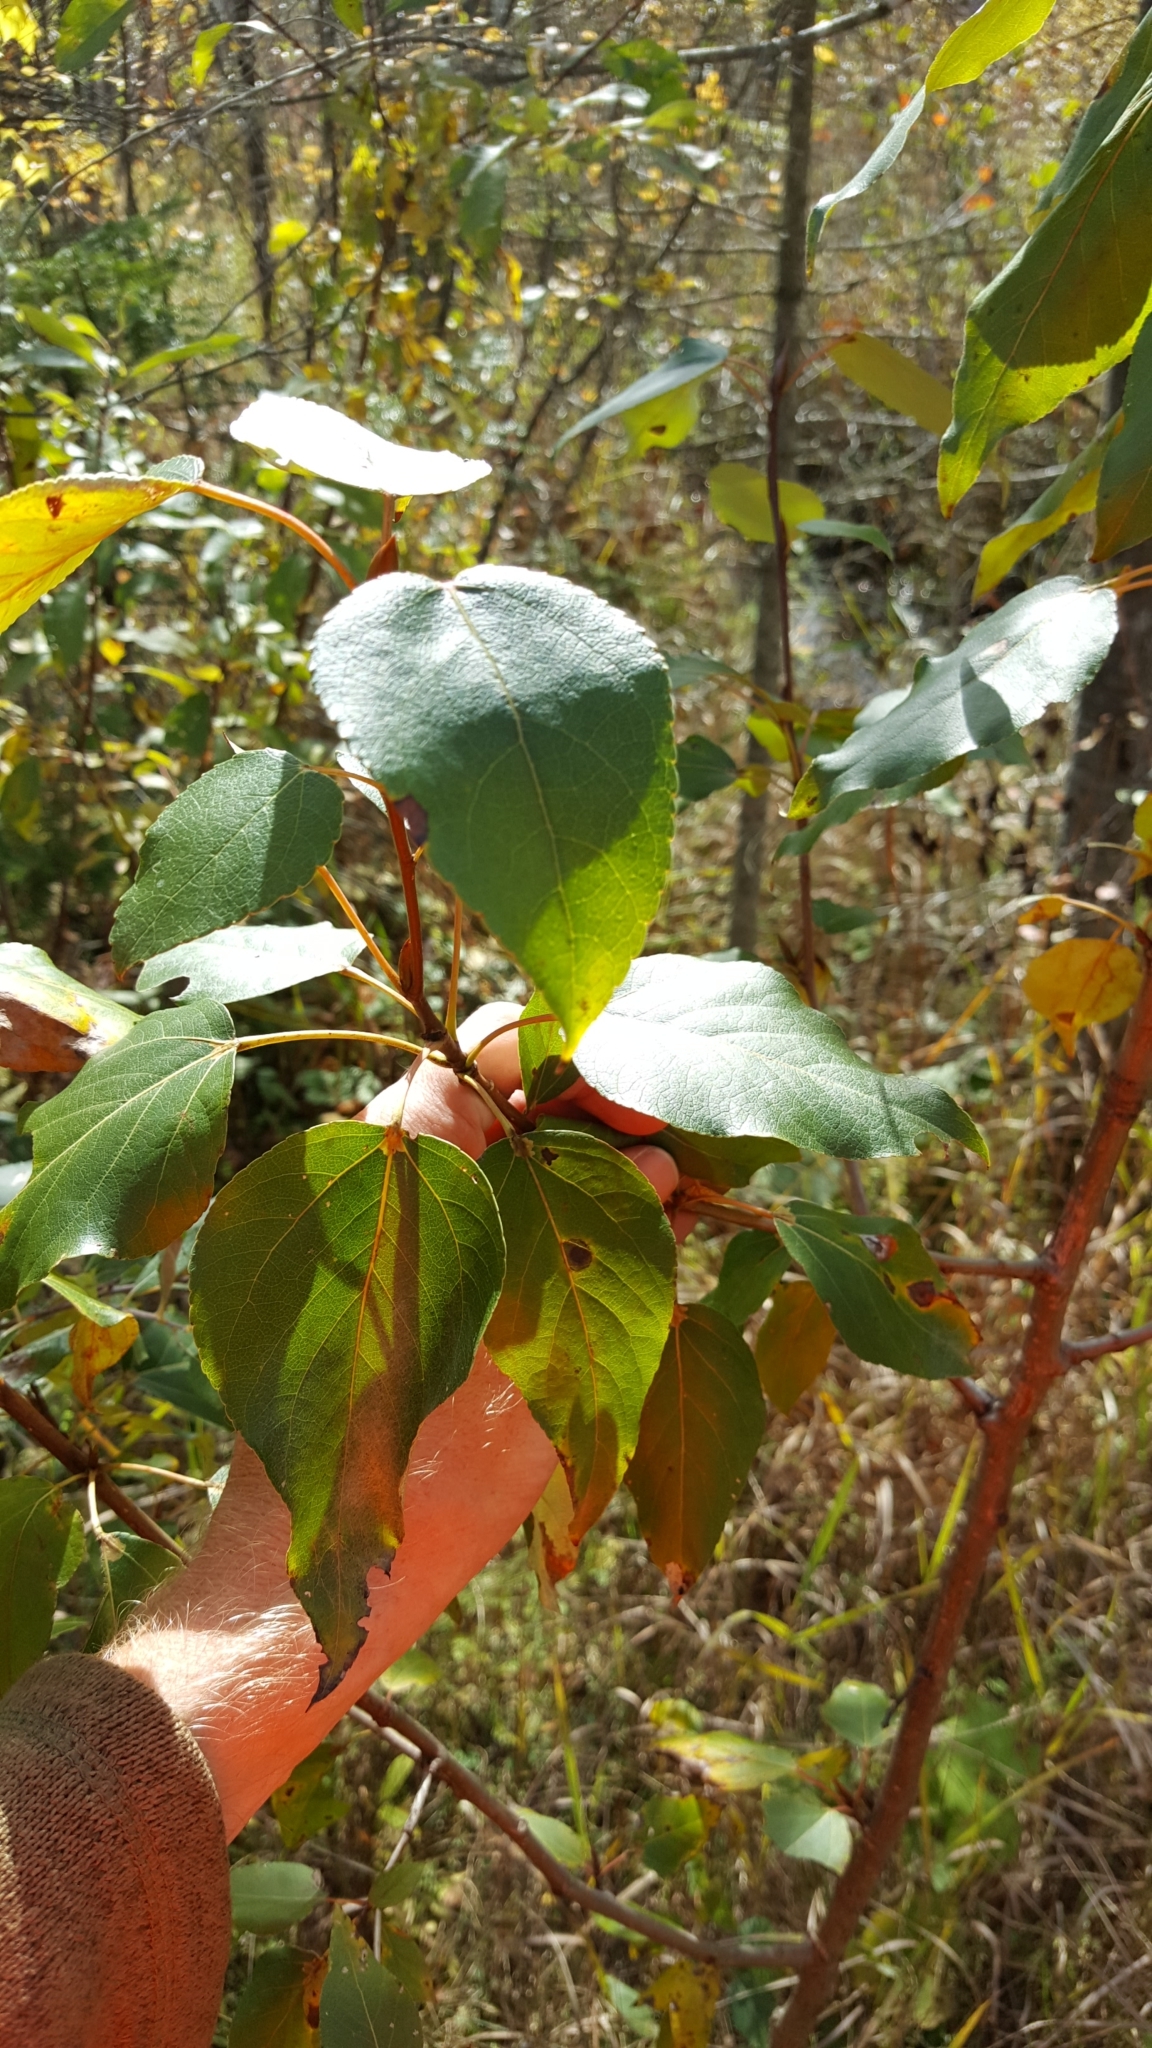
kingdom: Plantae
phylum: Tracheophyta
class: Magnoliopsida
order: Malpighiales
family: Salicaceae
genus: Populus
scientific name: Populus balsamifera
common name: Balsam poplar
